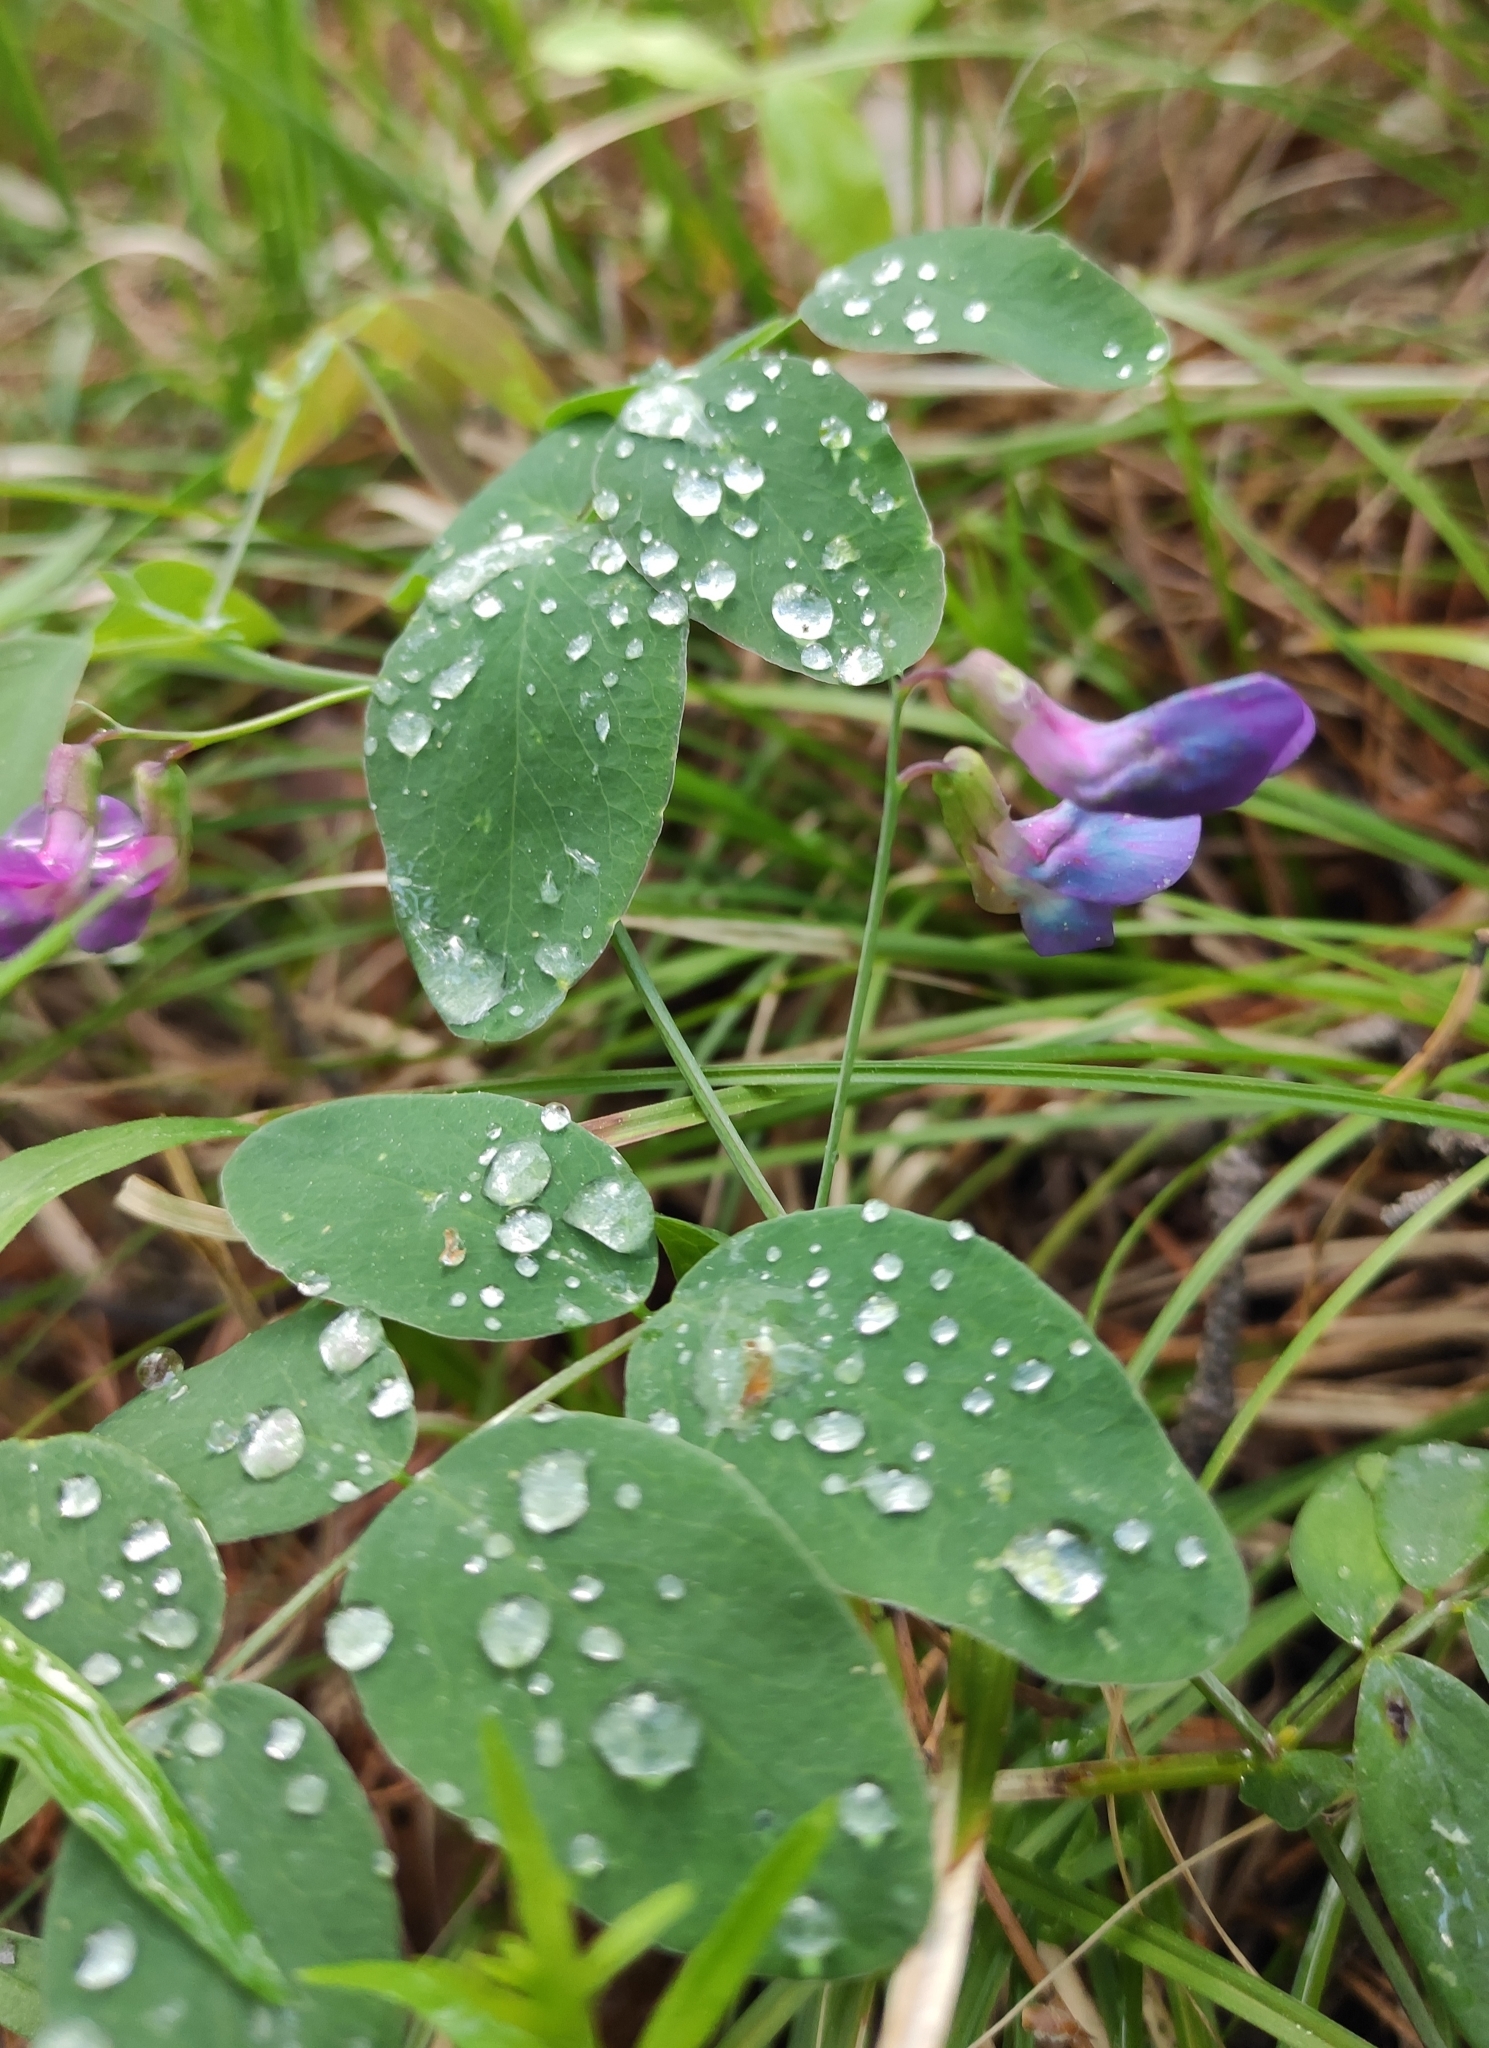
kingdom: Plantae
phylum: Tracheophyta
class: Magnoliopsida
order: Fabales
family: Fabaceae
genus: Lathyrus
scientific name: Lathyrus humilis
